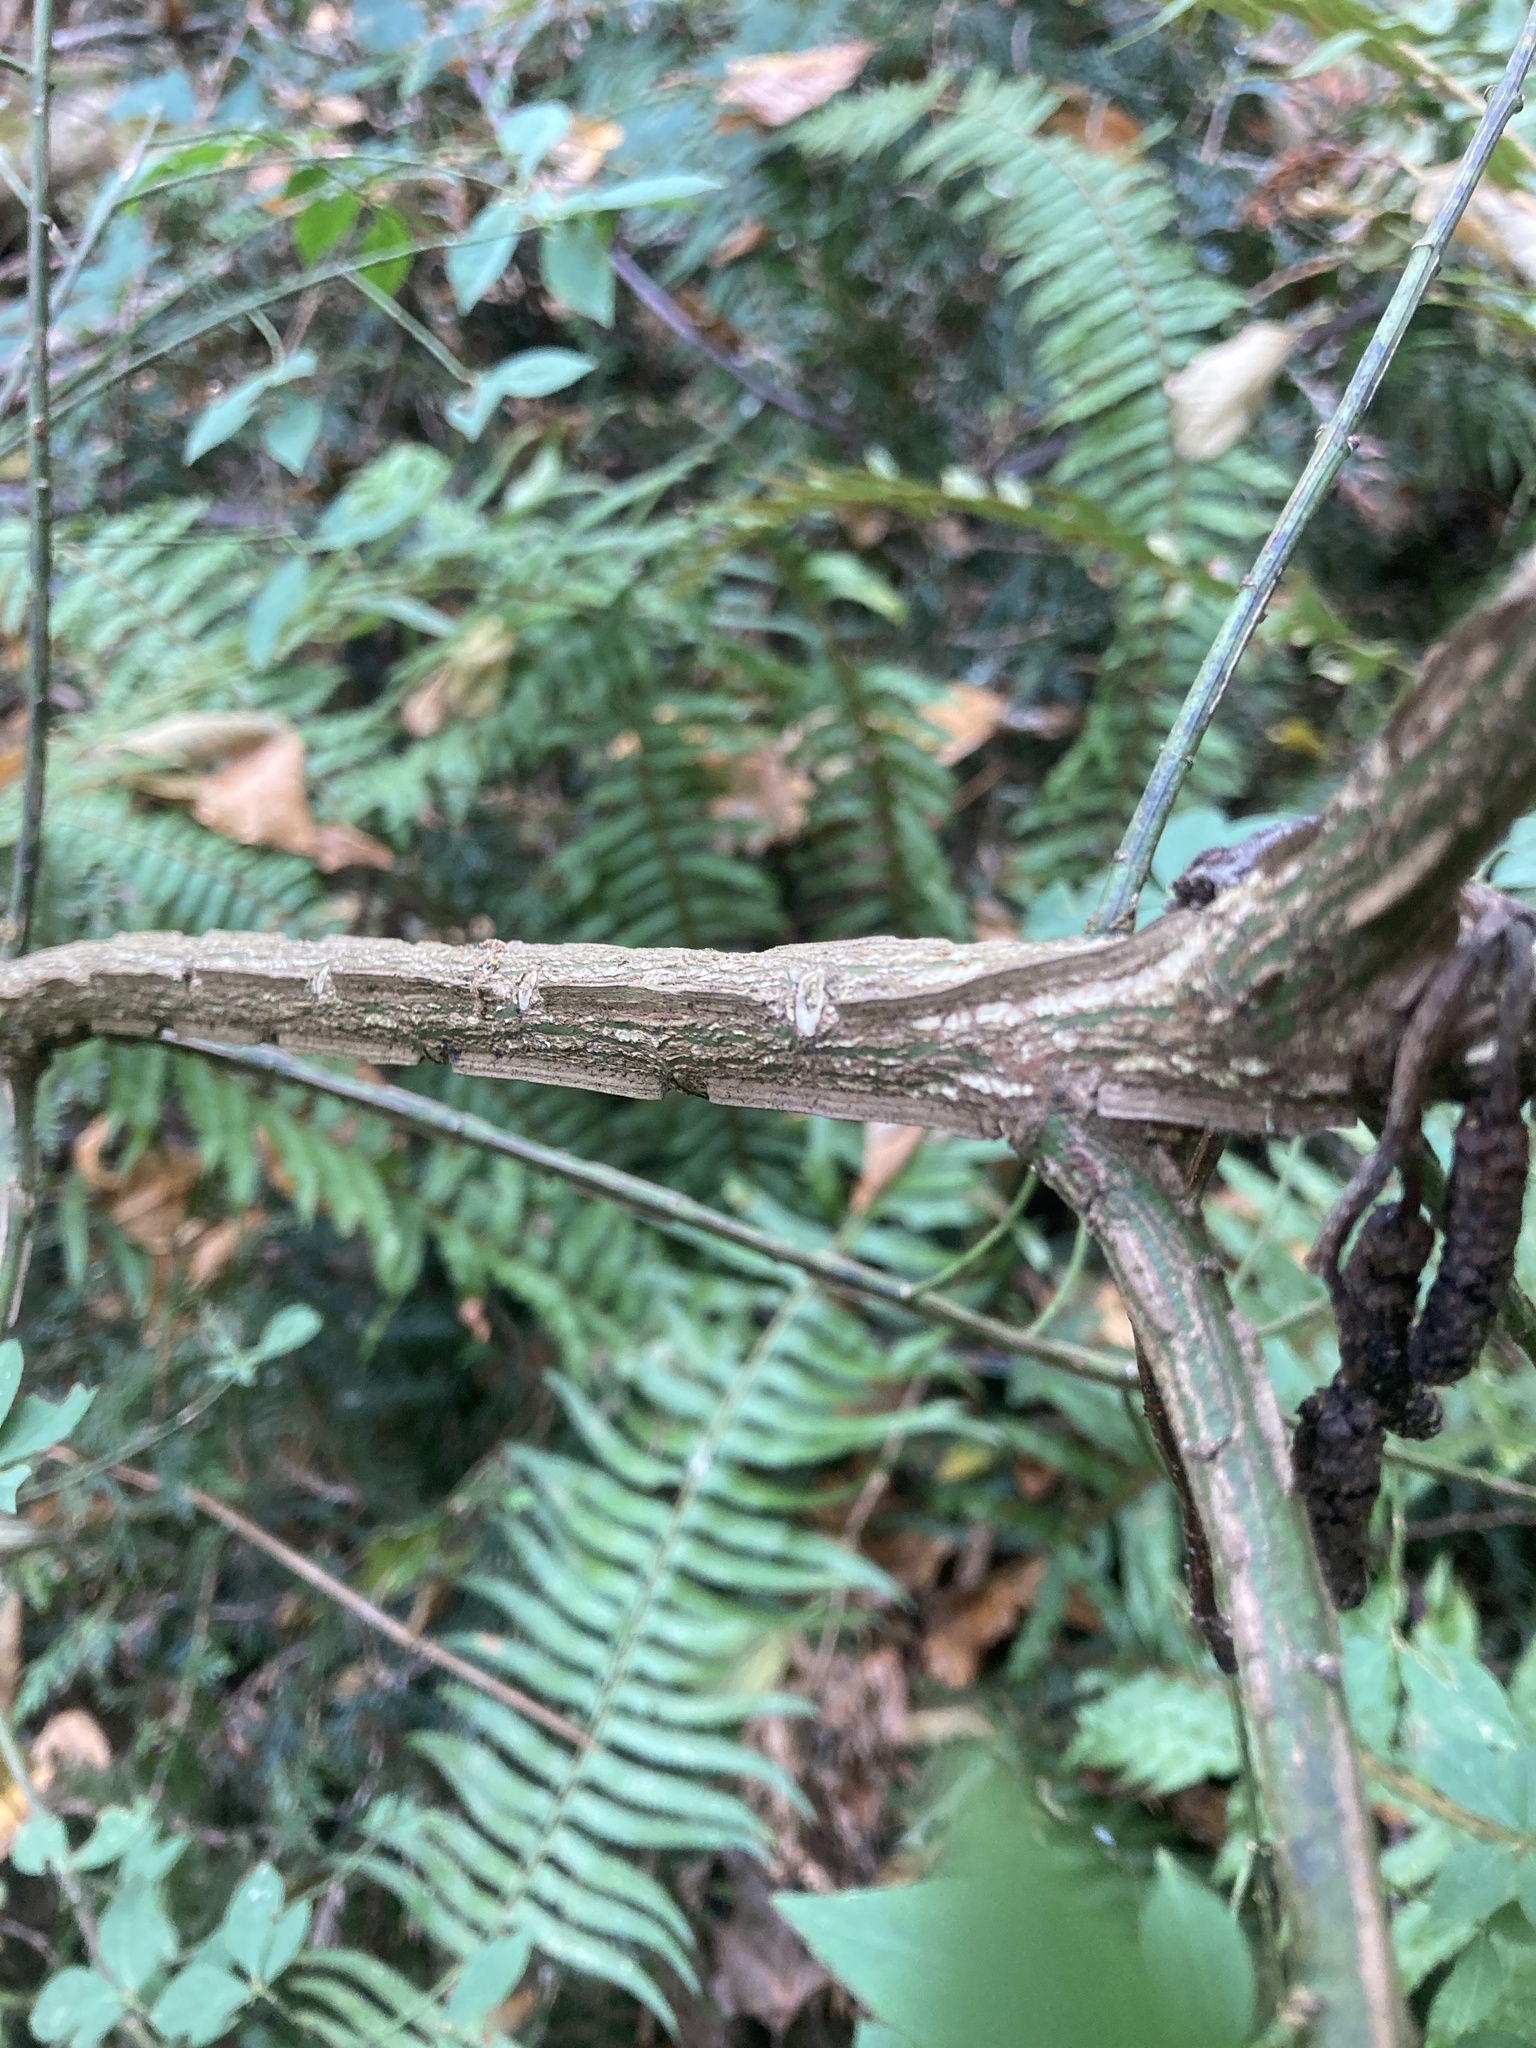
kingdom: Plantae
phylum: Tracheophyta
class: Magnoliopsida
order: Celastrales
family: Celastraceae
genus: Euonymus
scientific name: Euonymus alatus
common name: Winged euonymus
